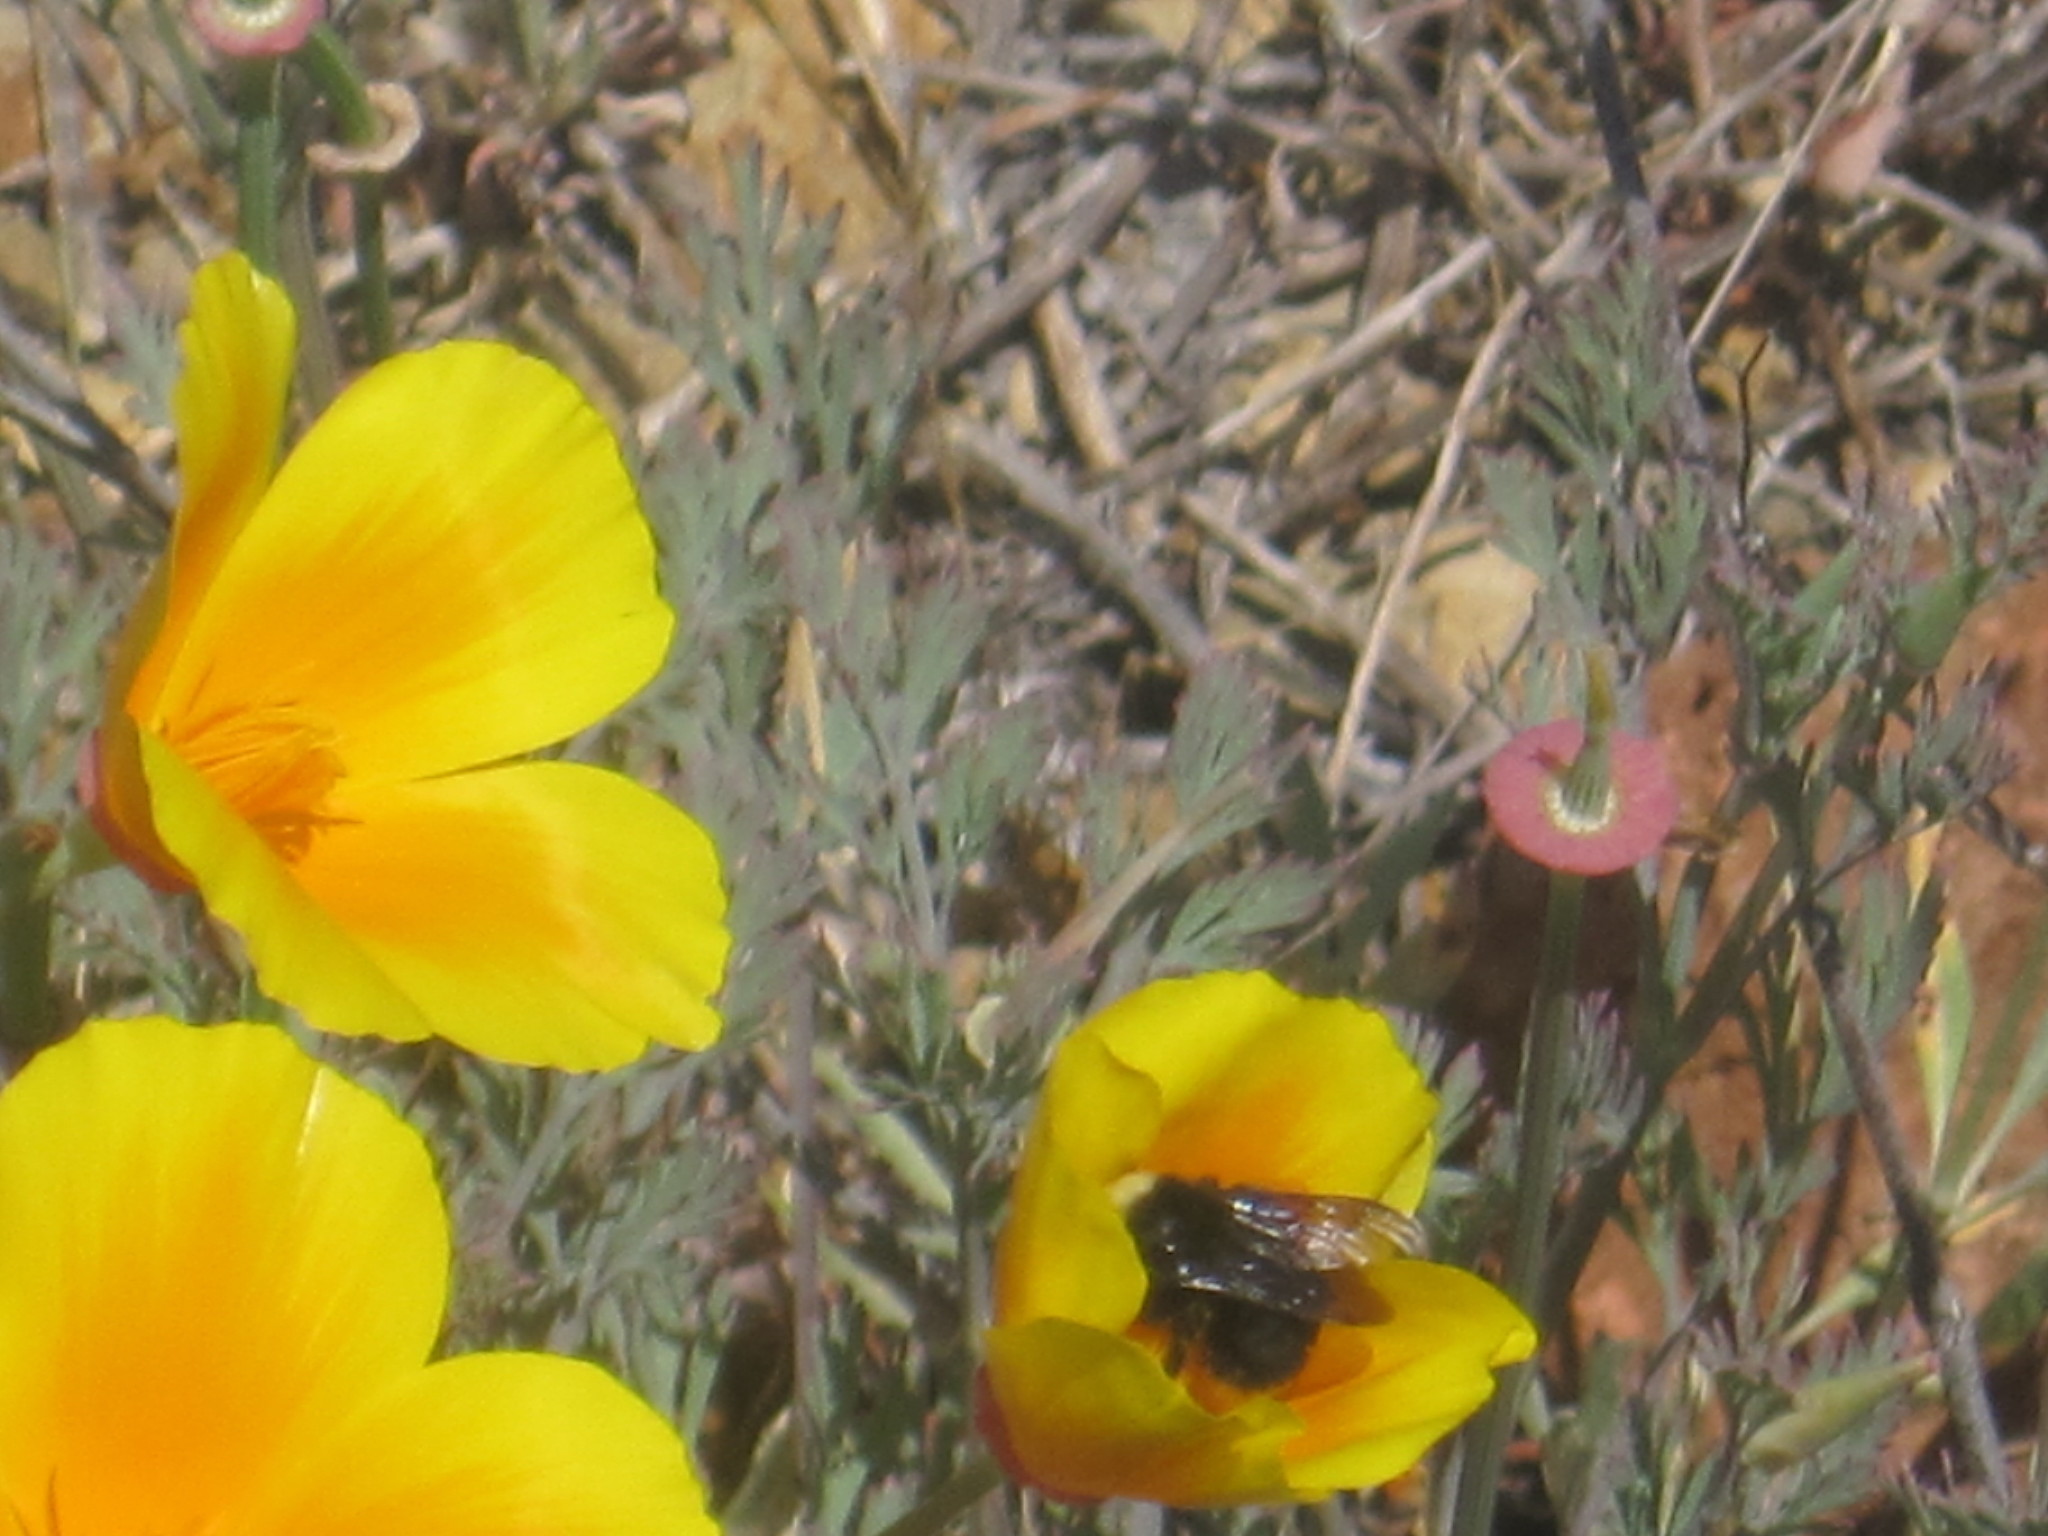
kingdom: Animalia
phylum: Arthropoda
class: Insecta
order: Hymenoptera
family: Apidae
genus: Bombus
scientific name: Bombus
